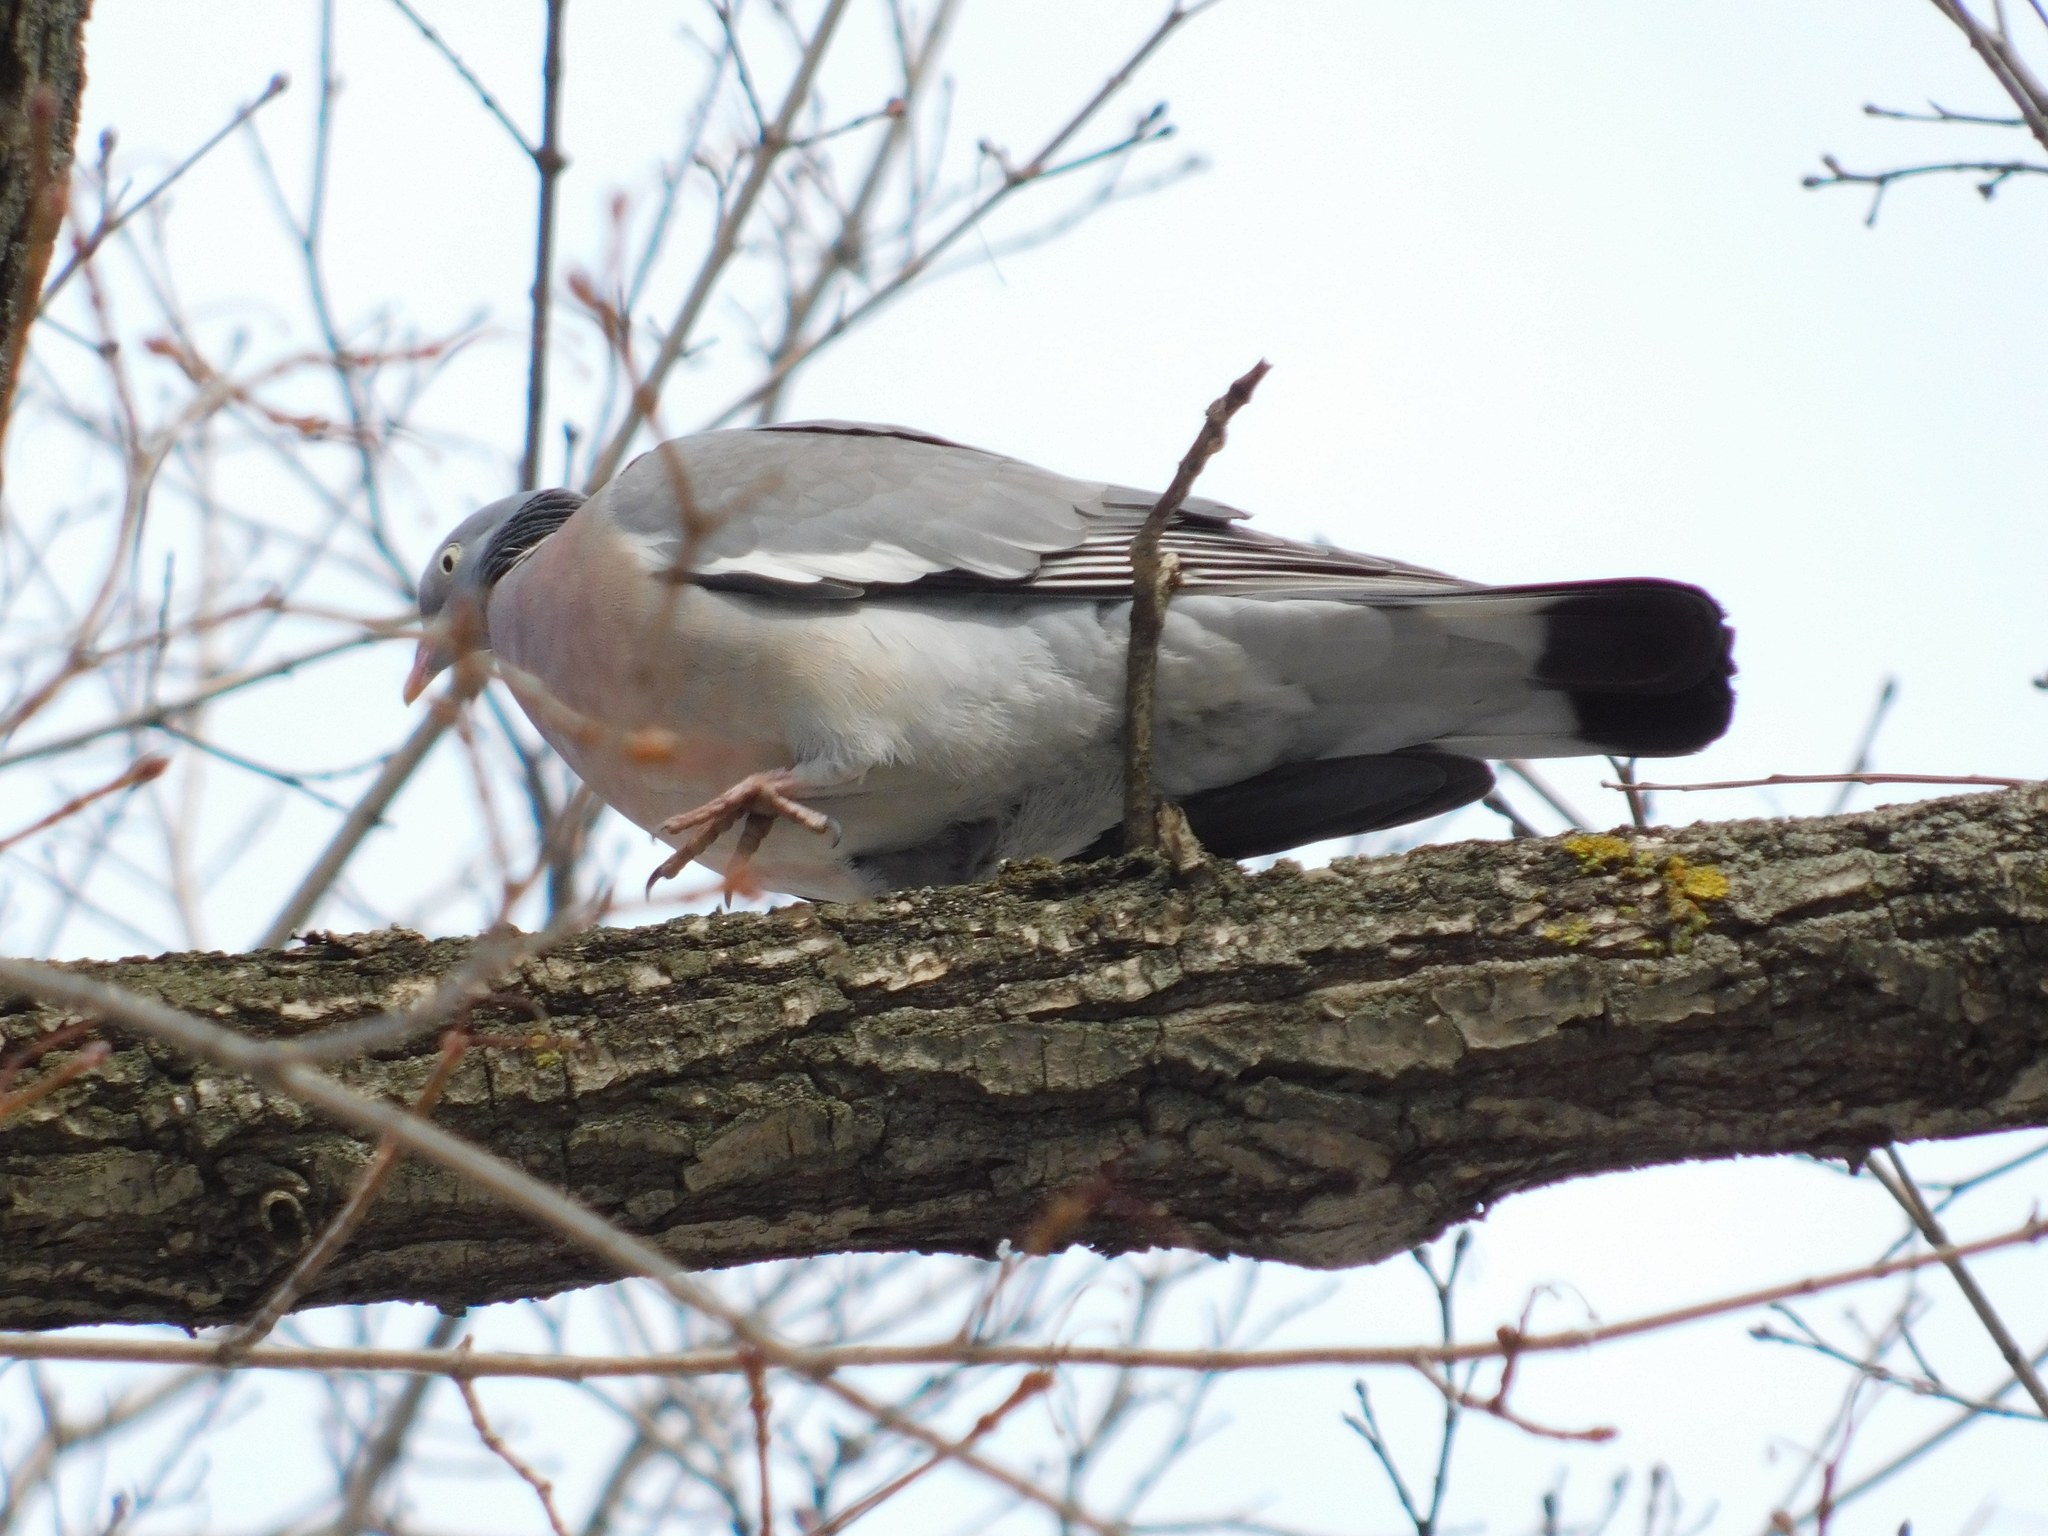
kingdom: Animalia
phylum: Chordata
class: Aves
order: Columbiformes
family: Columbidae
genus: Columba
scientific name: Columba palumbus
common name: Common wood pigeon
